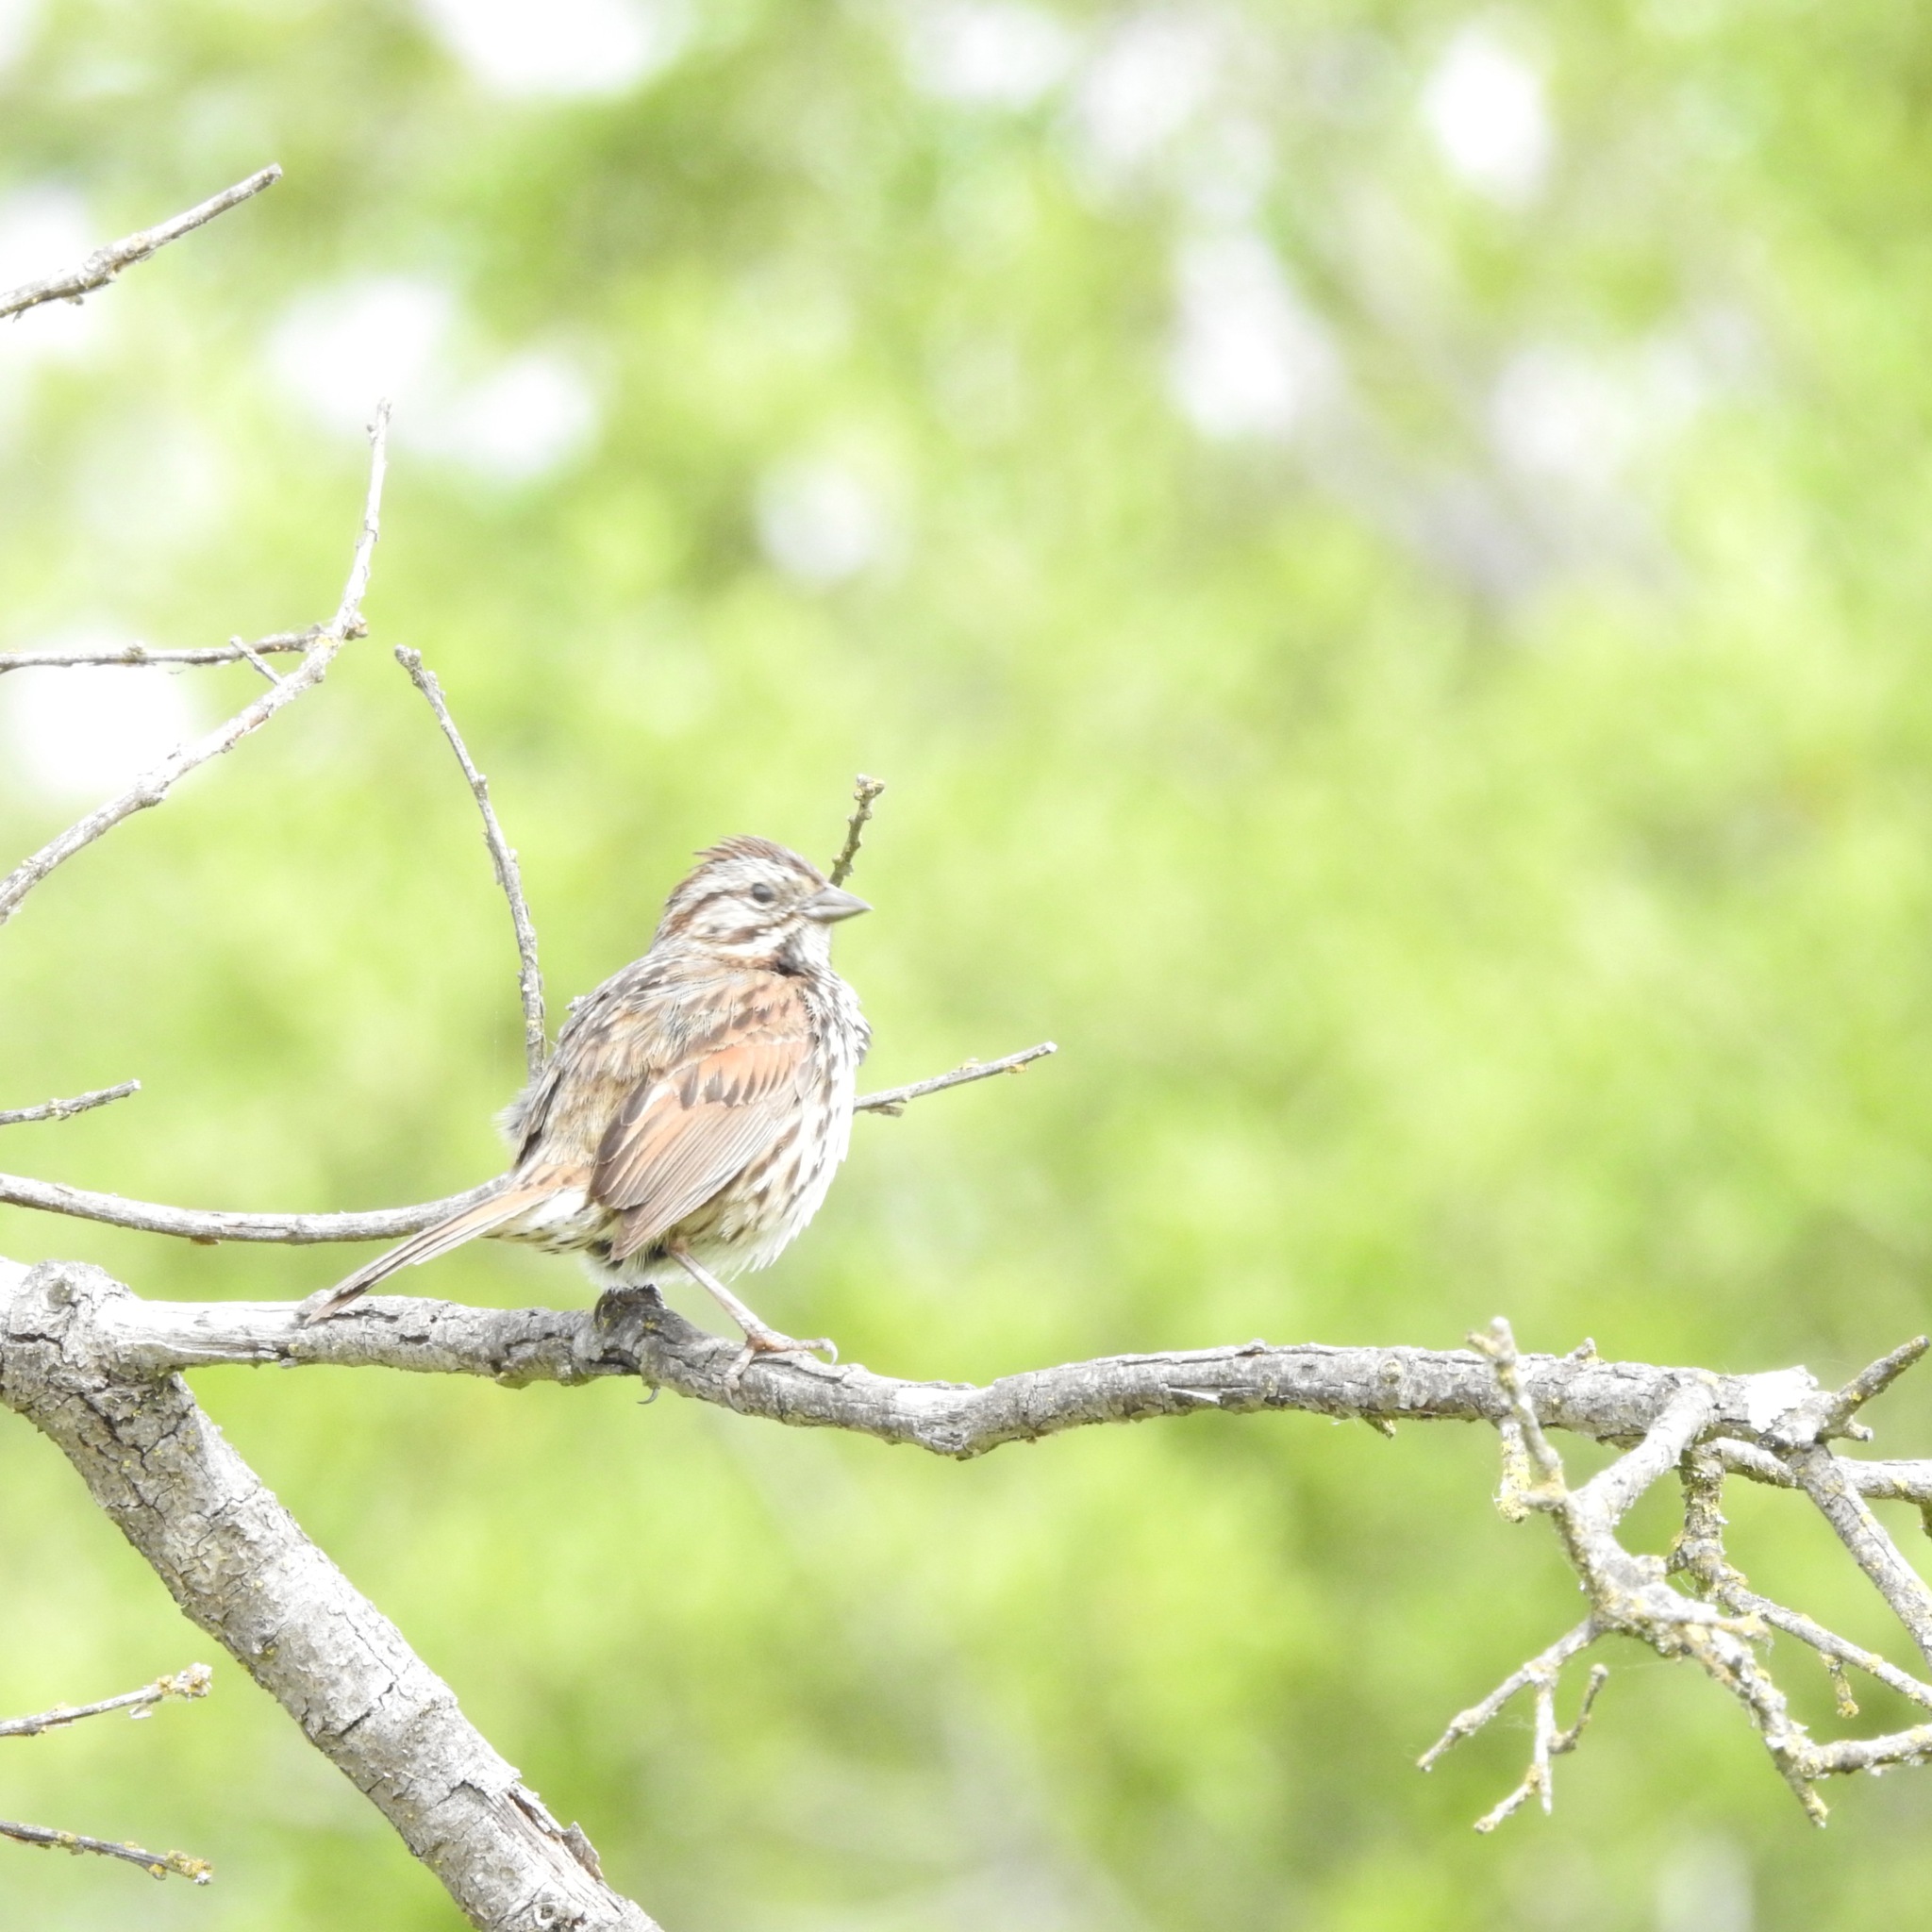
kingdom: Animalia
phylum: Chordata
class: Aves
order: Passeriformes
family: Passerellidae
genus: Melospiza
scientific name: Melospiza melodia
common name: Song sparrow
